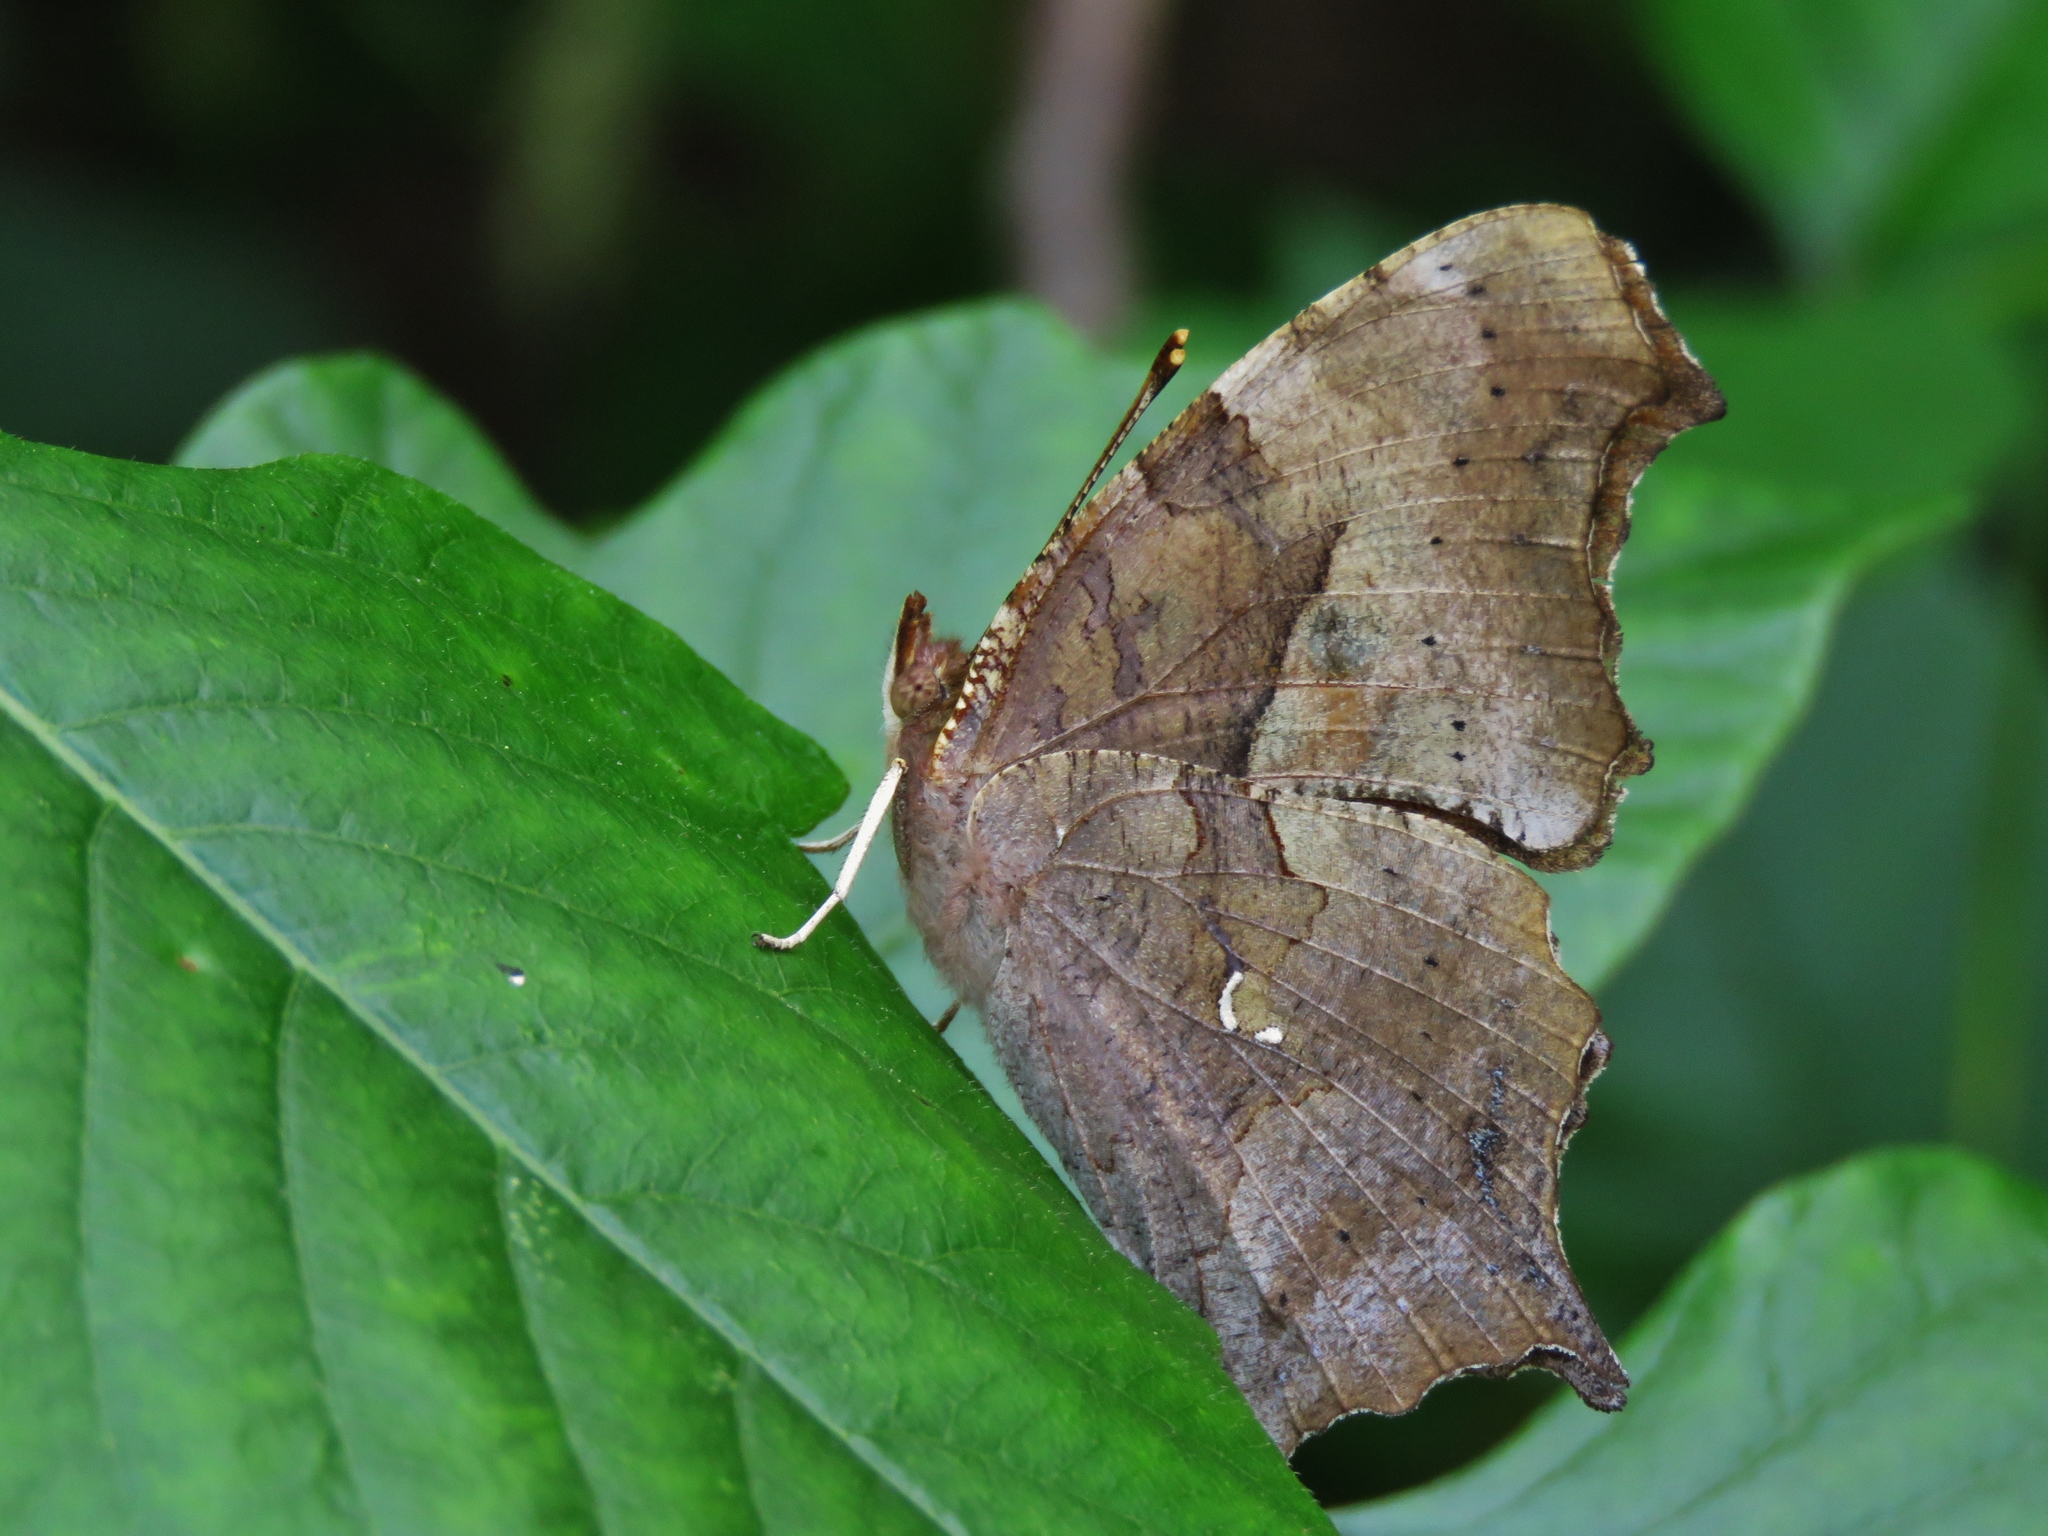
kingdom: Animalia
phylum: Arthropoda
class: Insecta
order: Lepidoptera
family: Nymphalidae
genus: Polygonia
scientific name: Polygonia interrogationis
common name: Question mark
